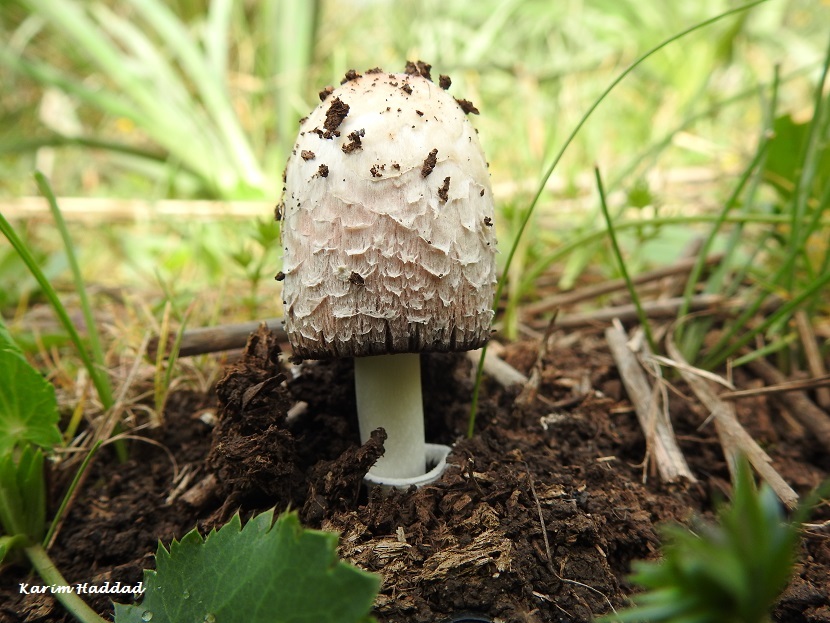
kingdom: Fungi
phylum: Basidiomycota
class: Agaricomycetes
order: Agaricales
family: Agaricaceae
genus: Coprinus
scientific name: Coprinus comatus
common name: Lawyer's wig
